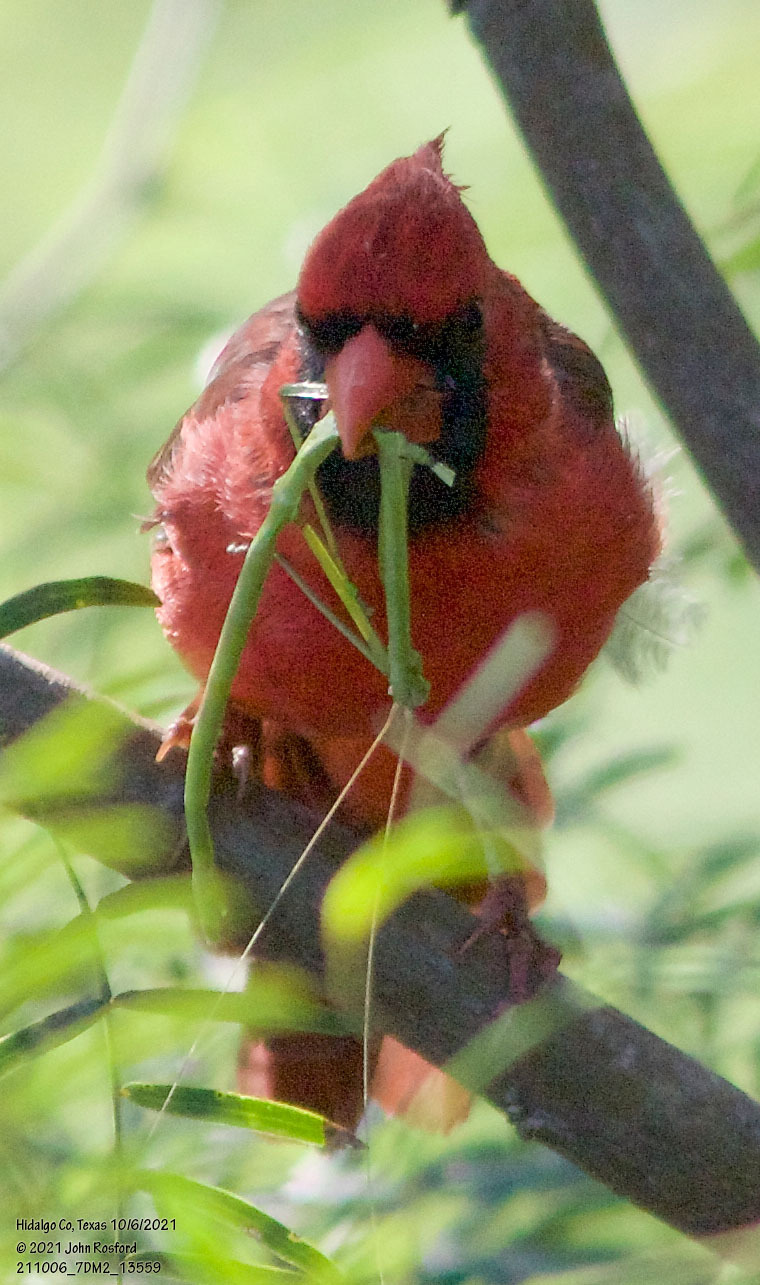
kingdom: Animalia
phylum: Chordata
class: Aves
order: Passeriformes
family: Cardinalidae
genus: Cardinalis
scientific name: Cardinalis cardinalis
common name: Northern cardinal
